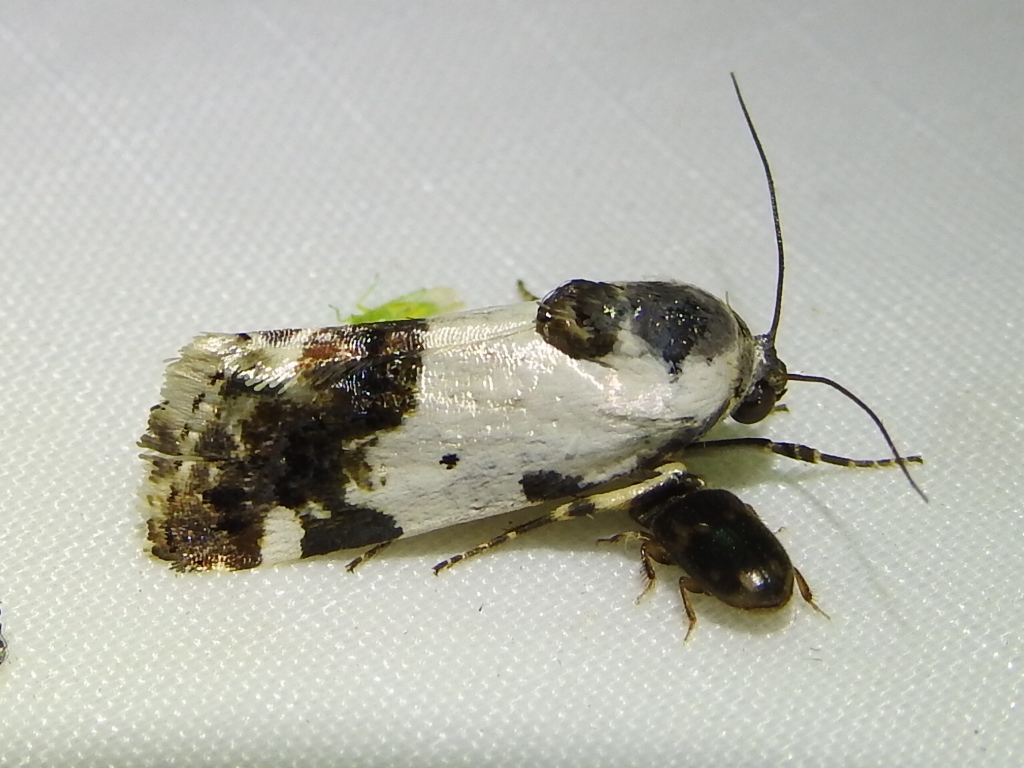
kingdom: Animalia
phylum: Arthropoda
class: Insecta
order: Lepidoptera
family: Noctuidae
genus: Acontia
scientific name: Acontia Tarache abdominalis
